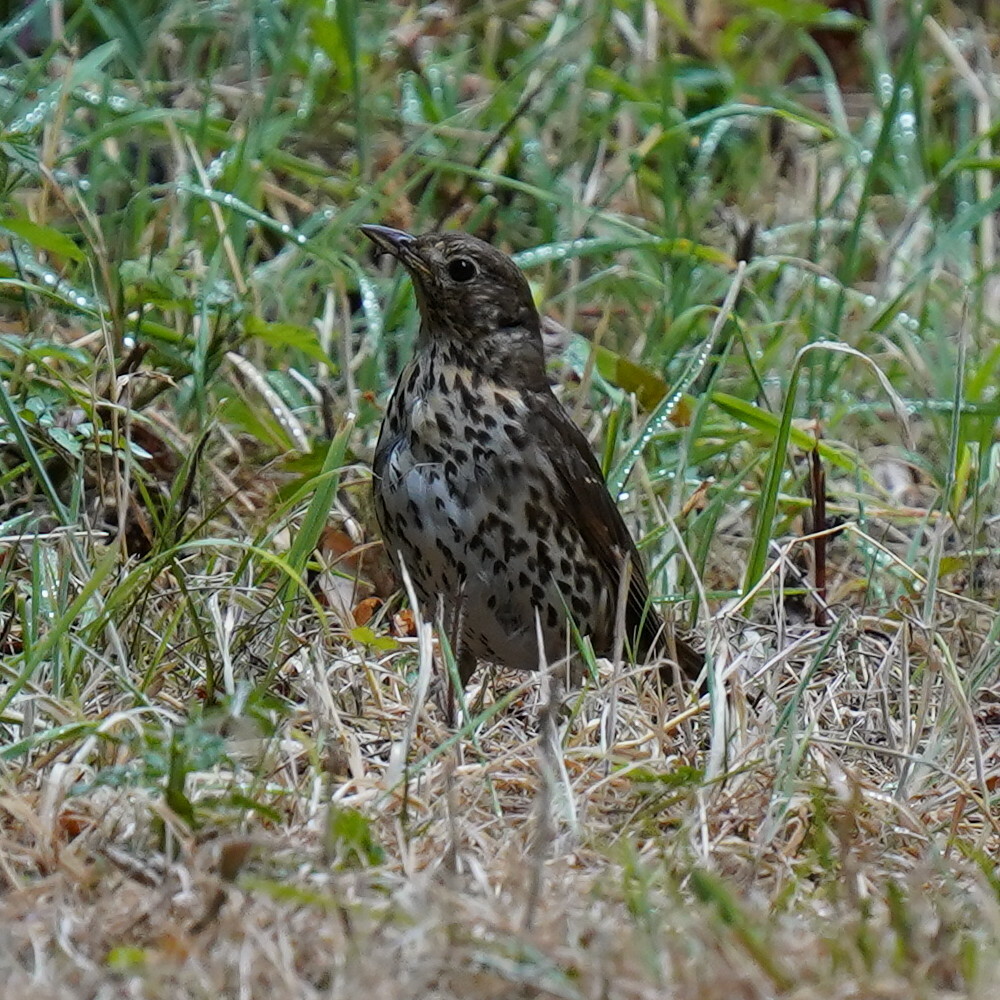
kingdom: Animalia
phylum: Chordata
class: Aves
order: Passeriformes
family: Turdidae
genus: Turdus
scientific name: Turdus philomelos
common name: Song thrush
